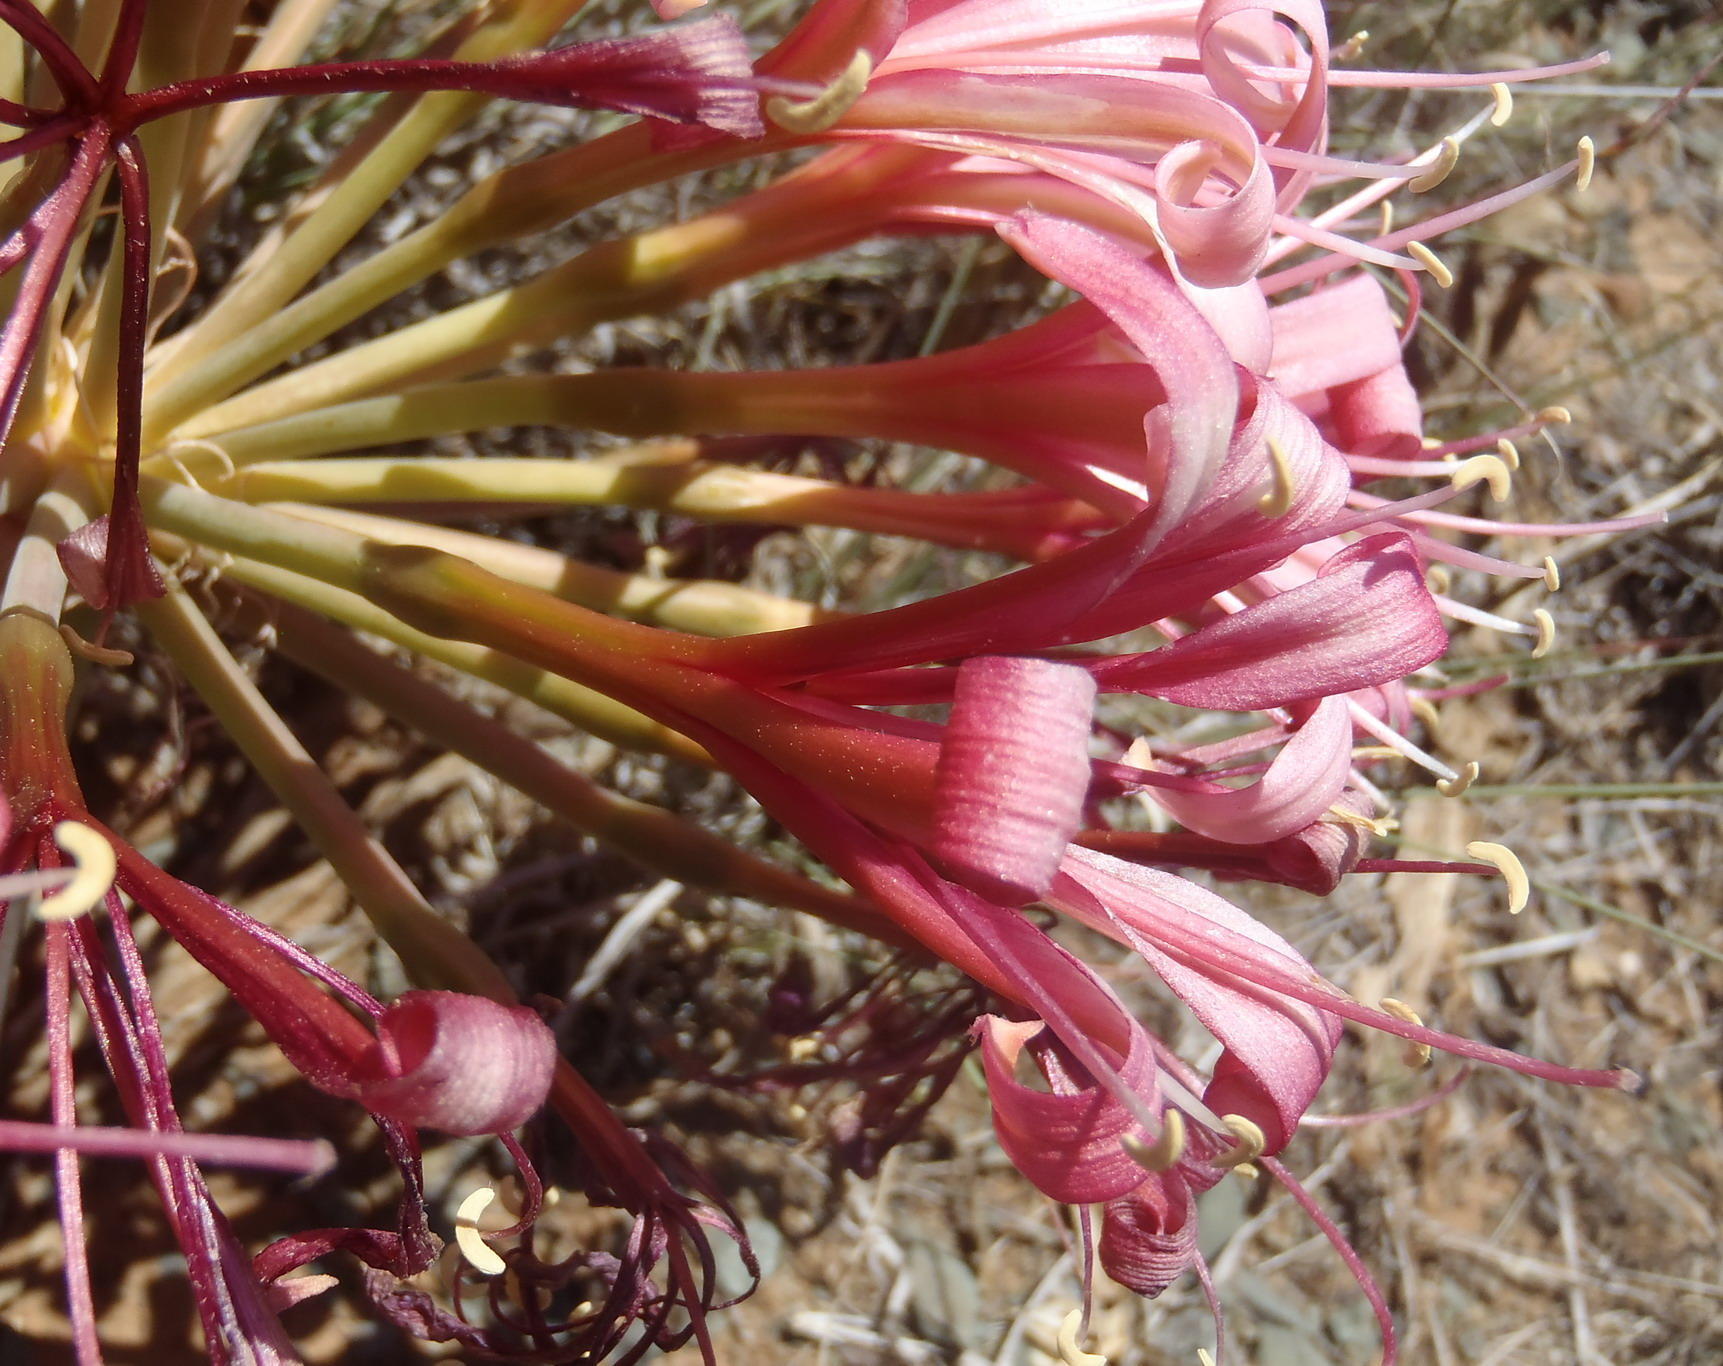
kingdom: Plantae
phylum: Tracheophyta
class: Liliopsida
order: Asparagales
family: Amaryllidaceae
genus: Ammocharis
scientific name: Ammocharis coranica
